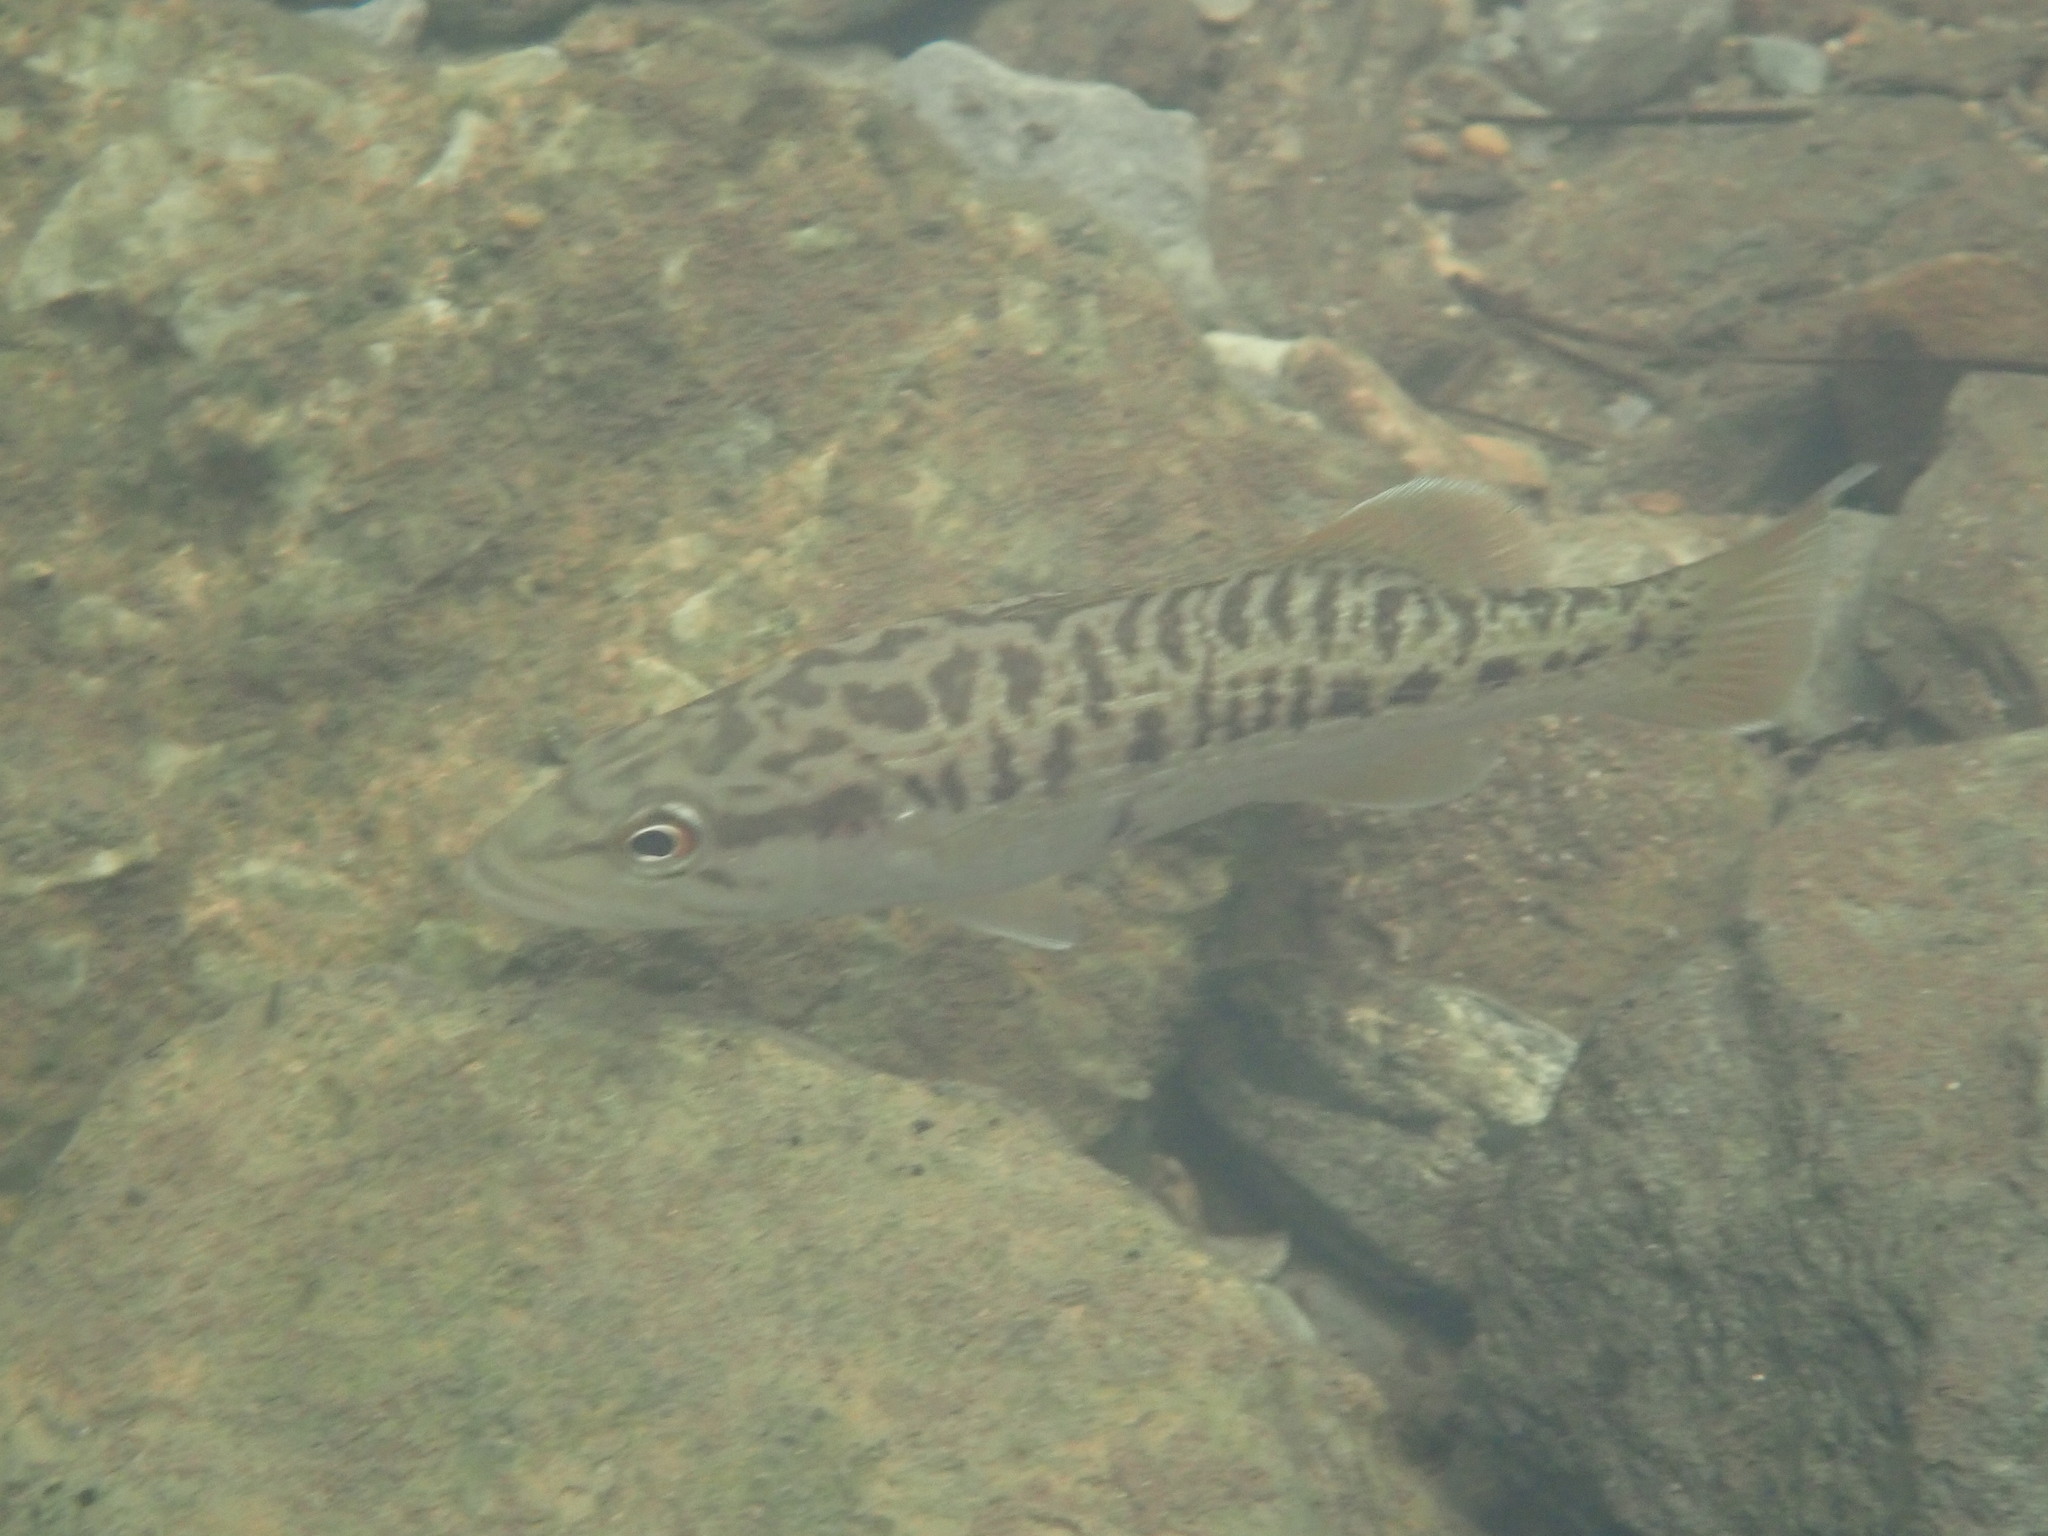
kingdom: Animalia
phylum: Chordata
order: Perciformes
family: Centrarchidae
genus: Micropterus
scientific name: Micropterus coosae
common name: Redeye bass
